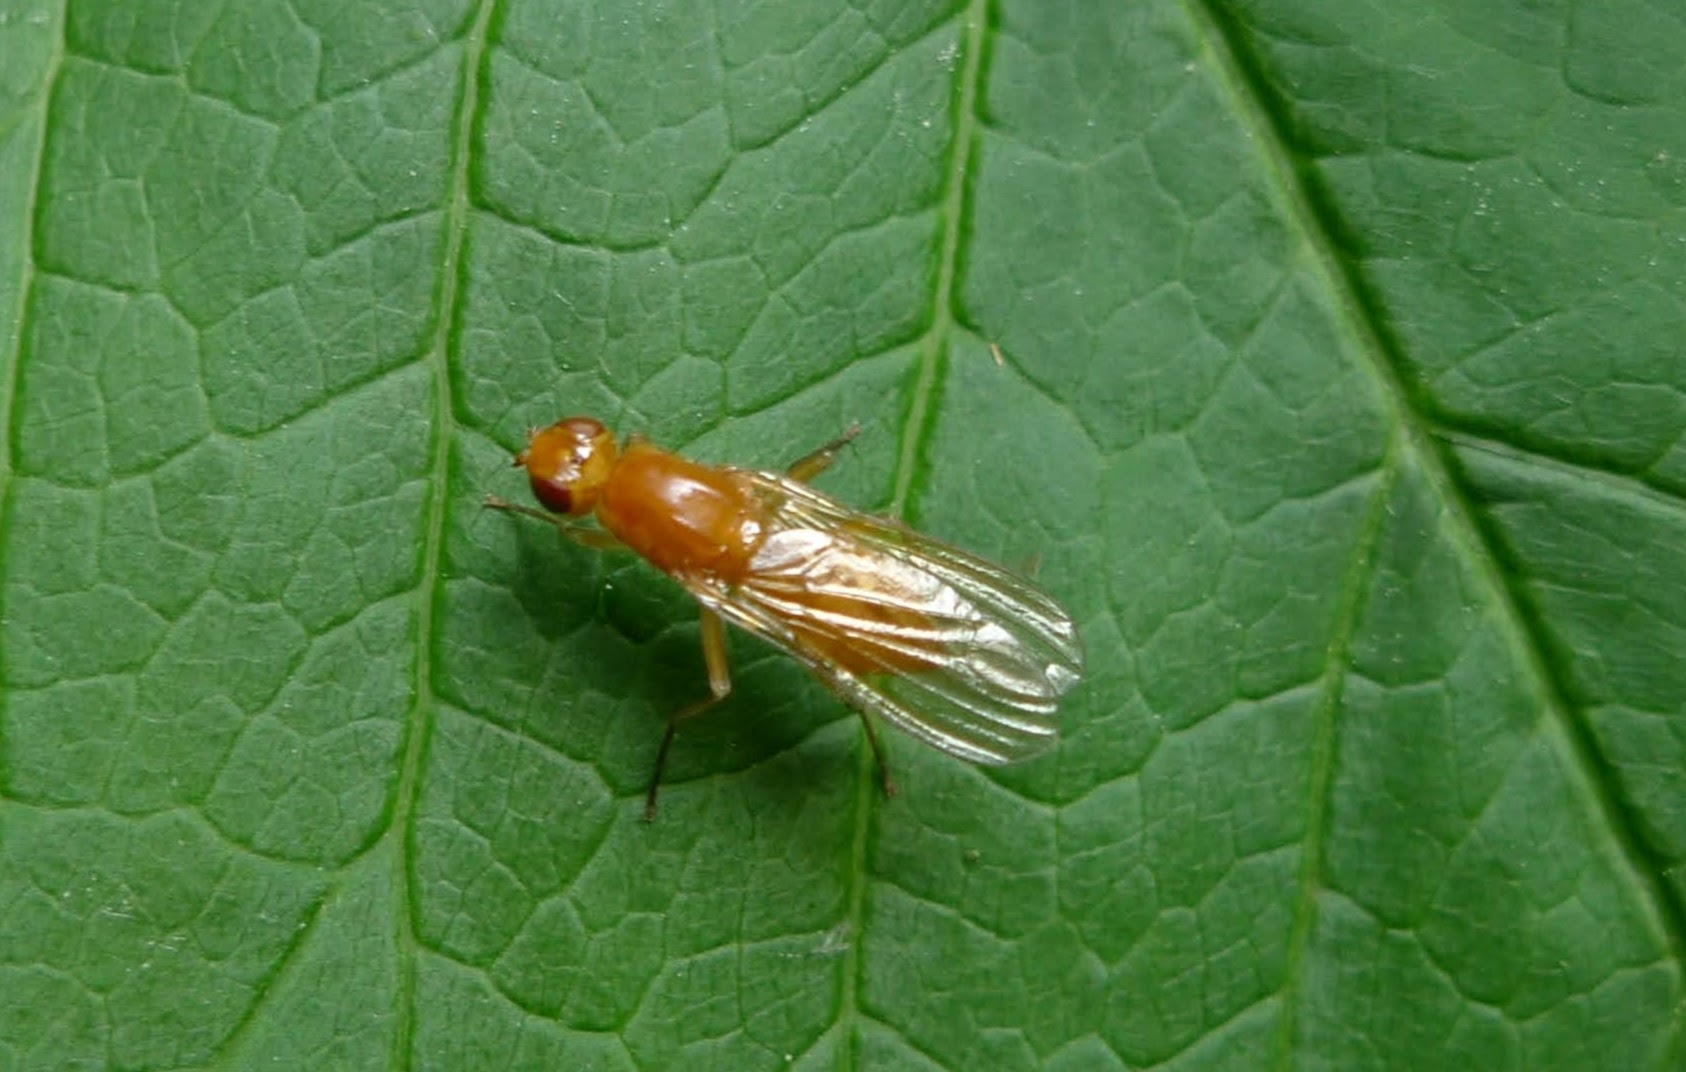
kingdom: Animalia
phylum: Arthropoda
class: Insecta
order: Diptera
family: Psilidae
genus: Psila
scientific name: Psila fimetaria
